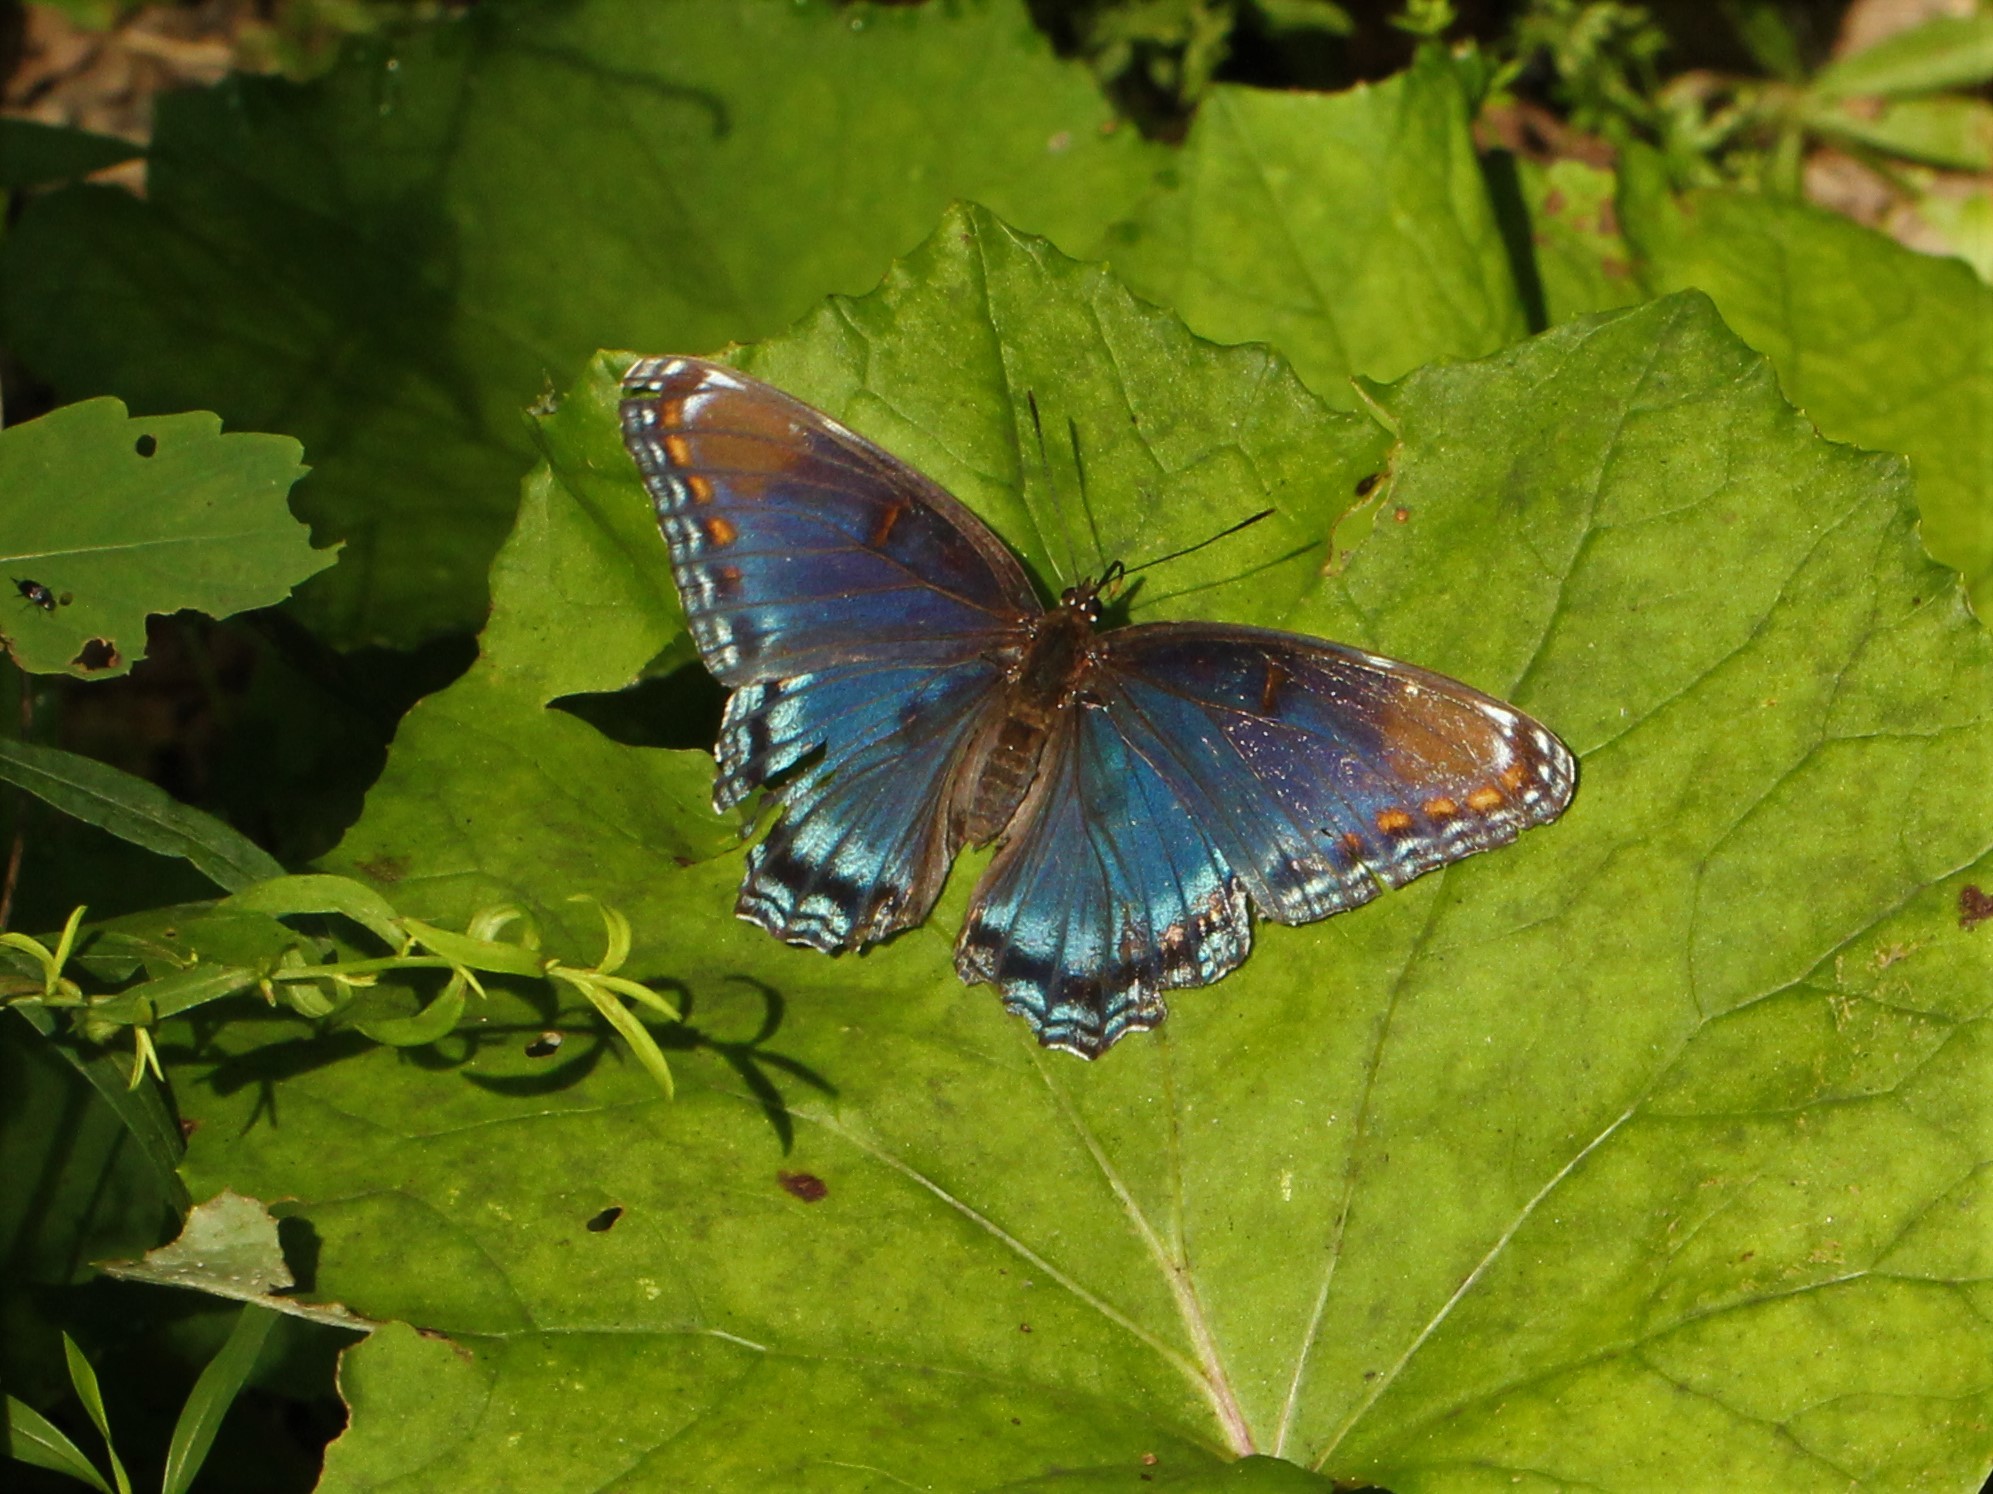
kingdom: Animalia
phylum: Arthropoda
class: Insecta
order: Lepidoptera
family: Nymphalidae
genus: Limenitis
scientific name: Limenitis astyanax
